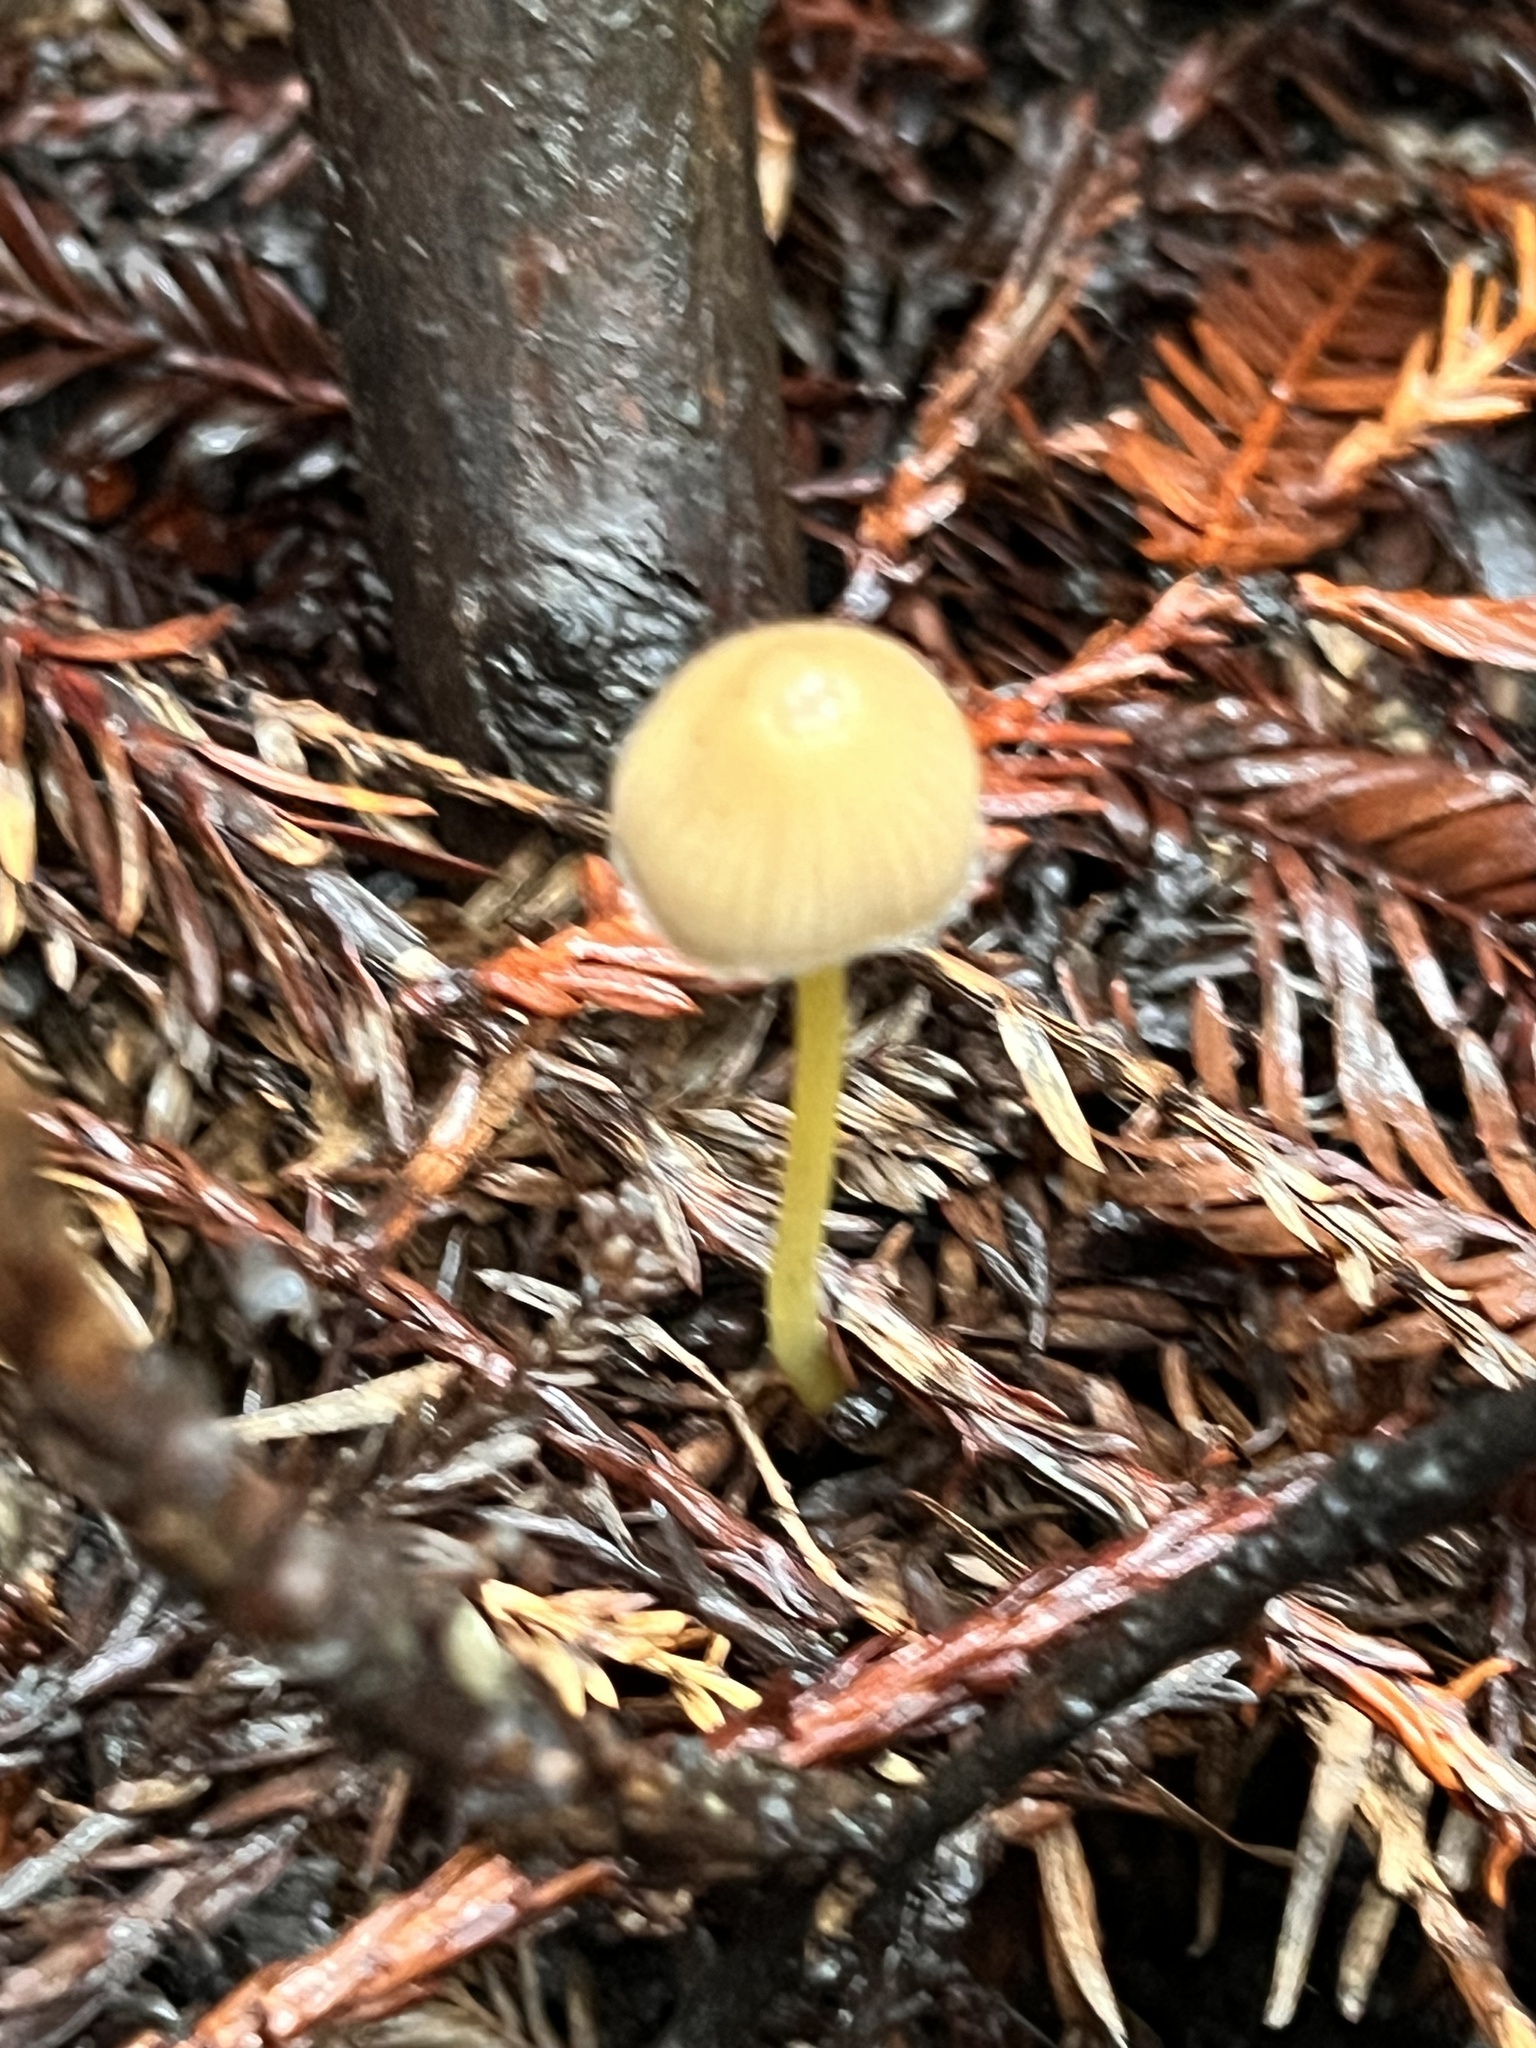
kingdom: Fungi
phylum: Basidiomycota
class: Agaricomycetes
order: Agaricales
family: Mycenaceae
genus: Mycena
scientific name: Mycena epipterygia
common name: Yellowleg bonnet
